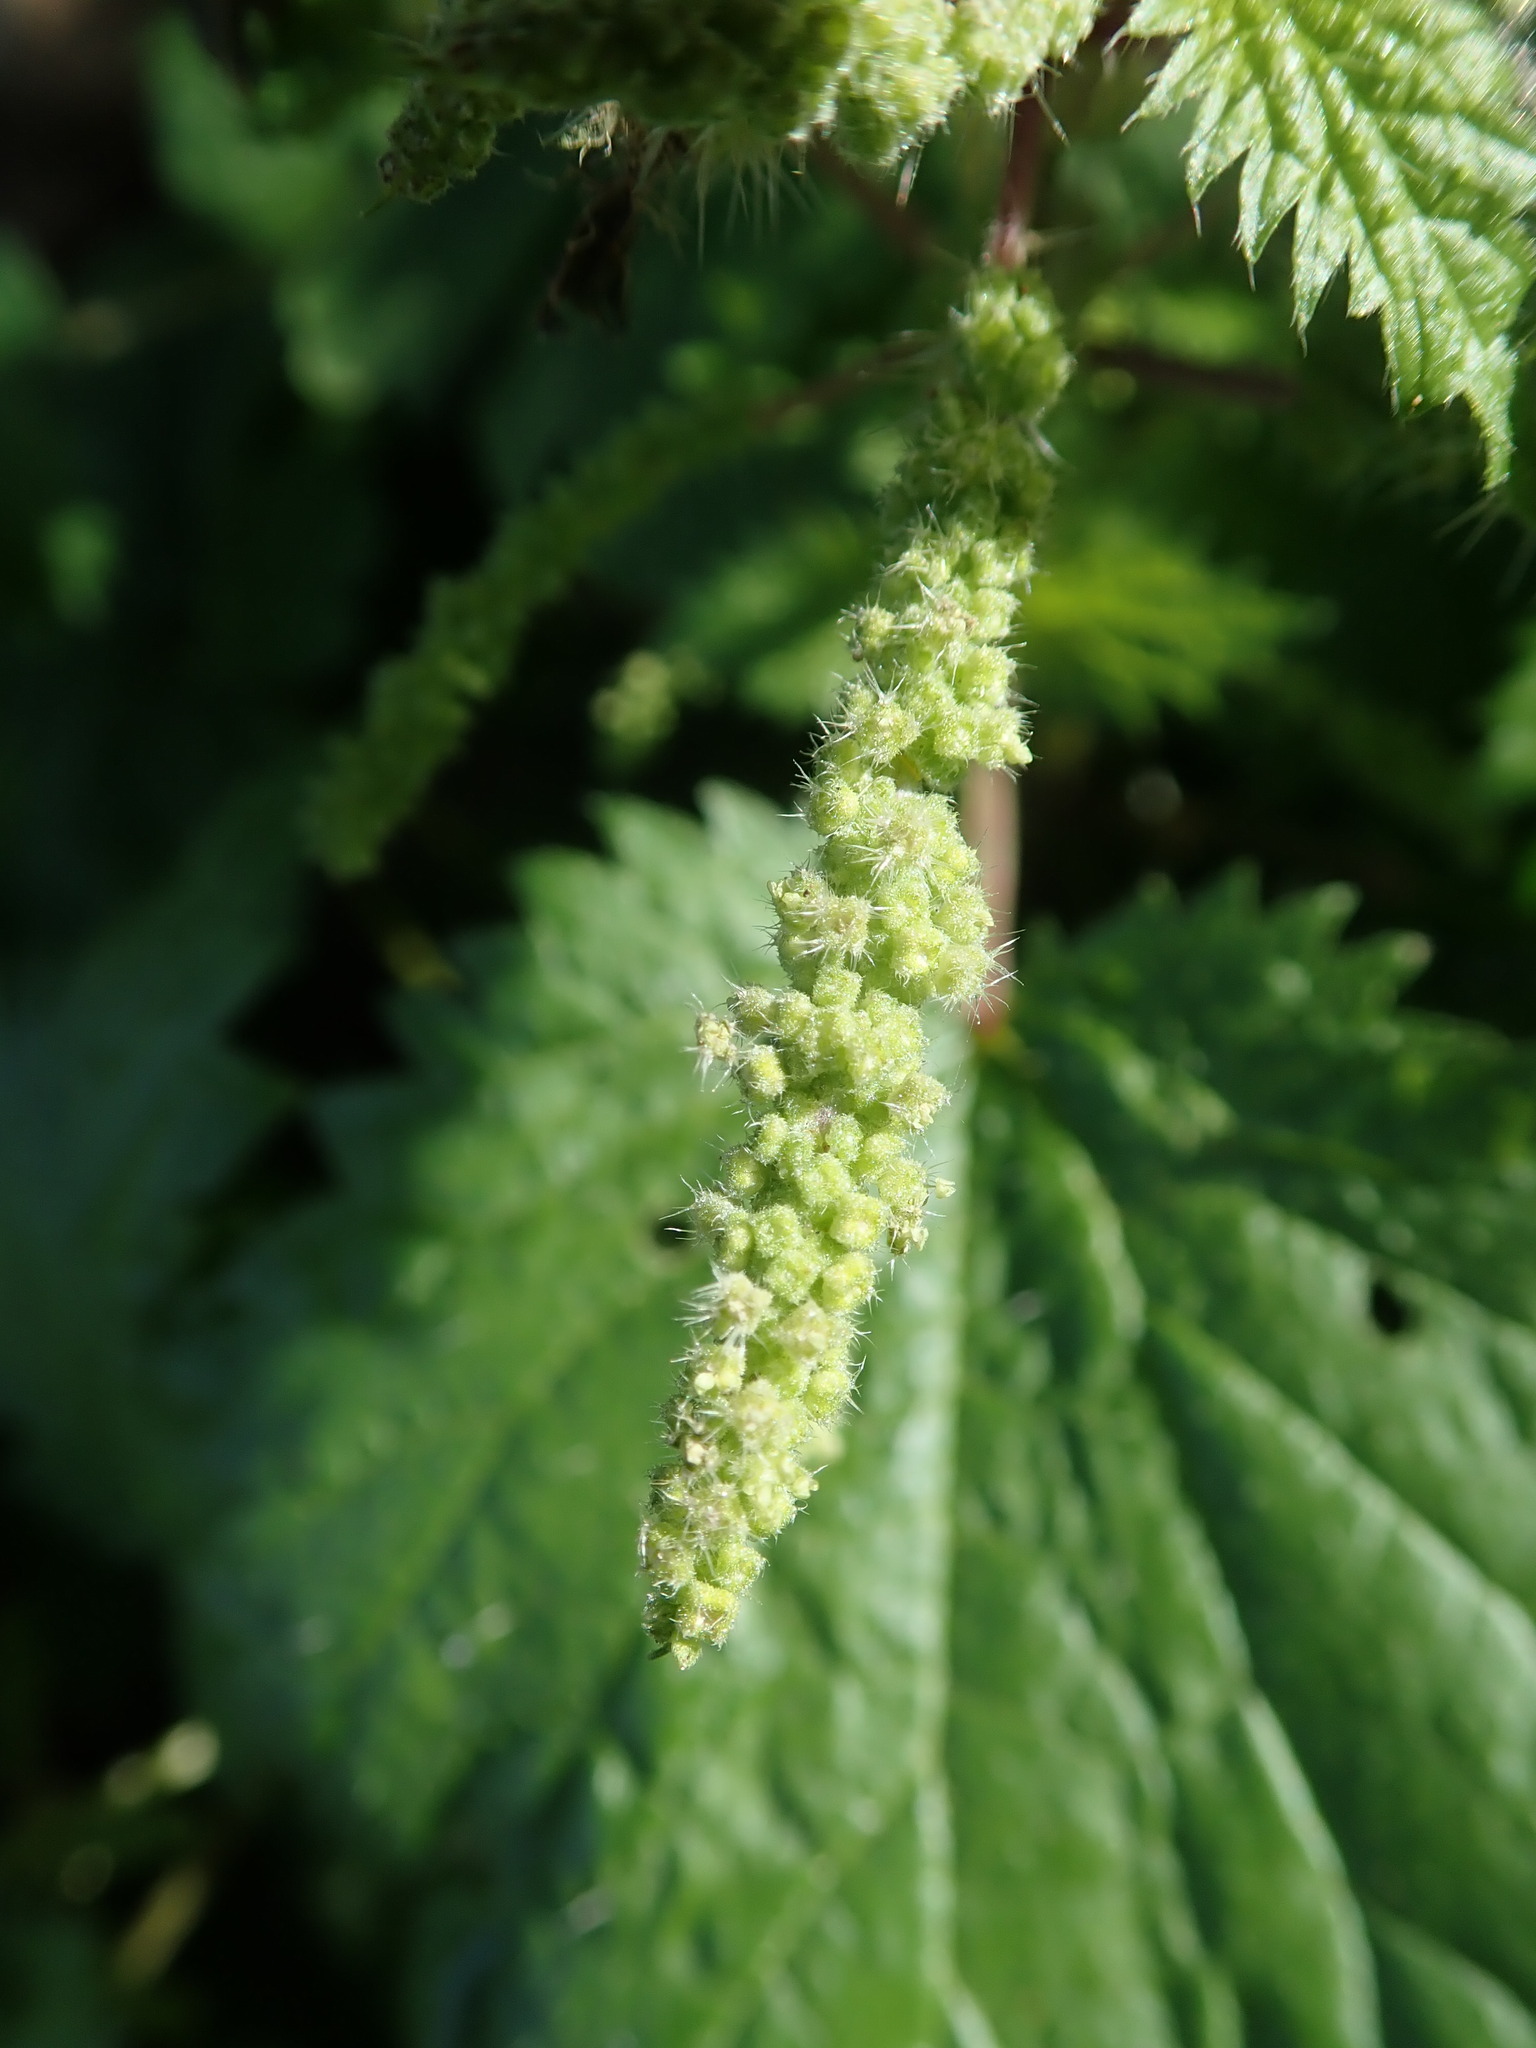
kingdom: Plantae
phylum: Tracheophyta
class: Magnoliopsida
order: Rosales
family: Urticaceae
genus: Urtica
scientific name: Urtica membranacea
